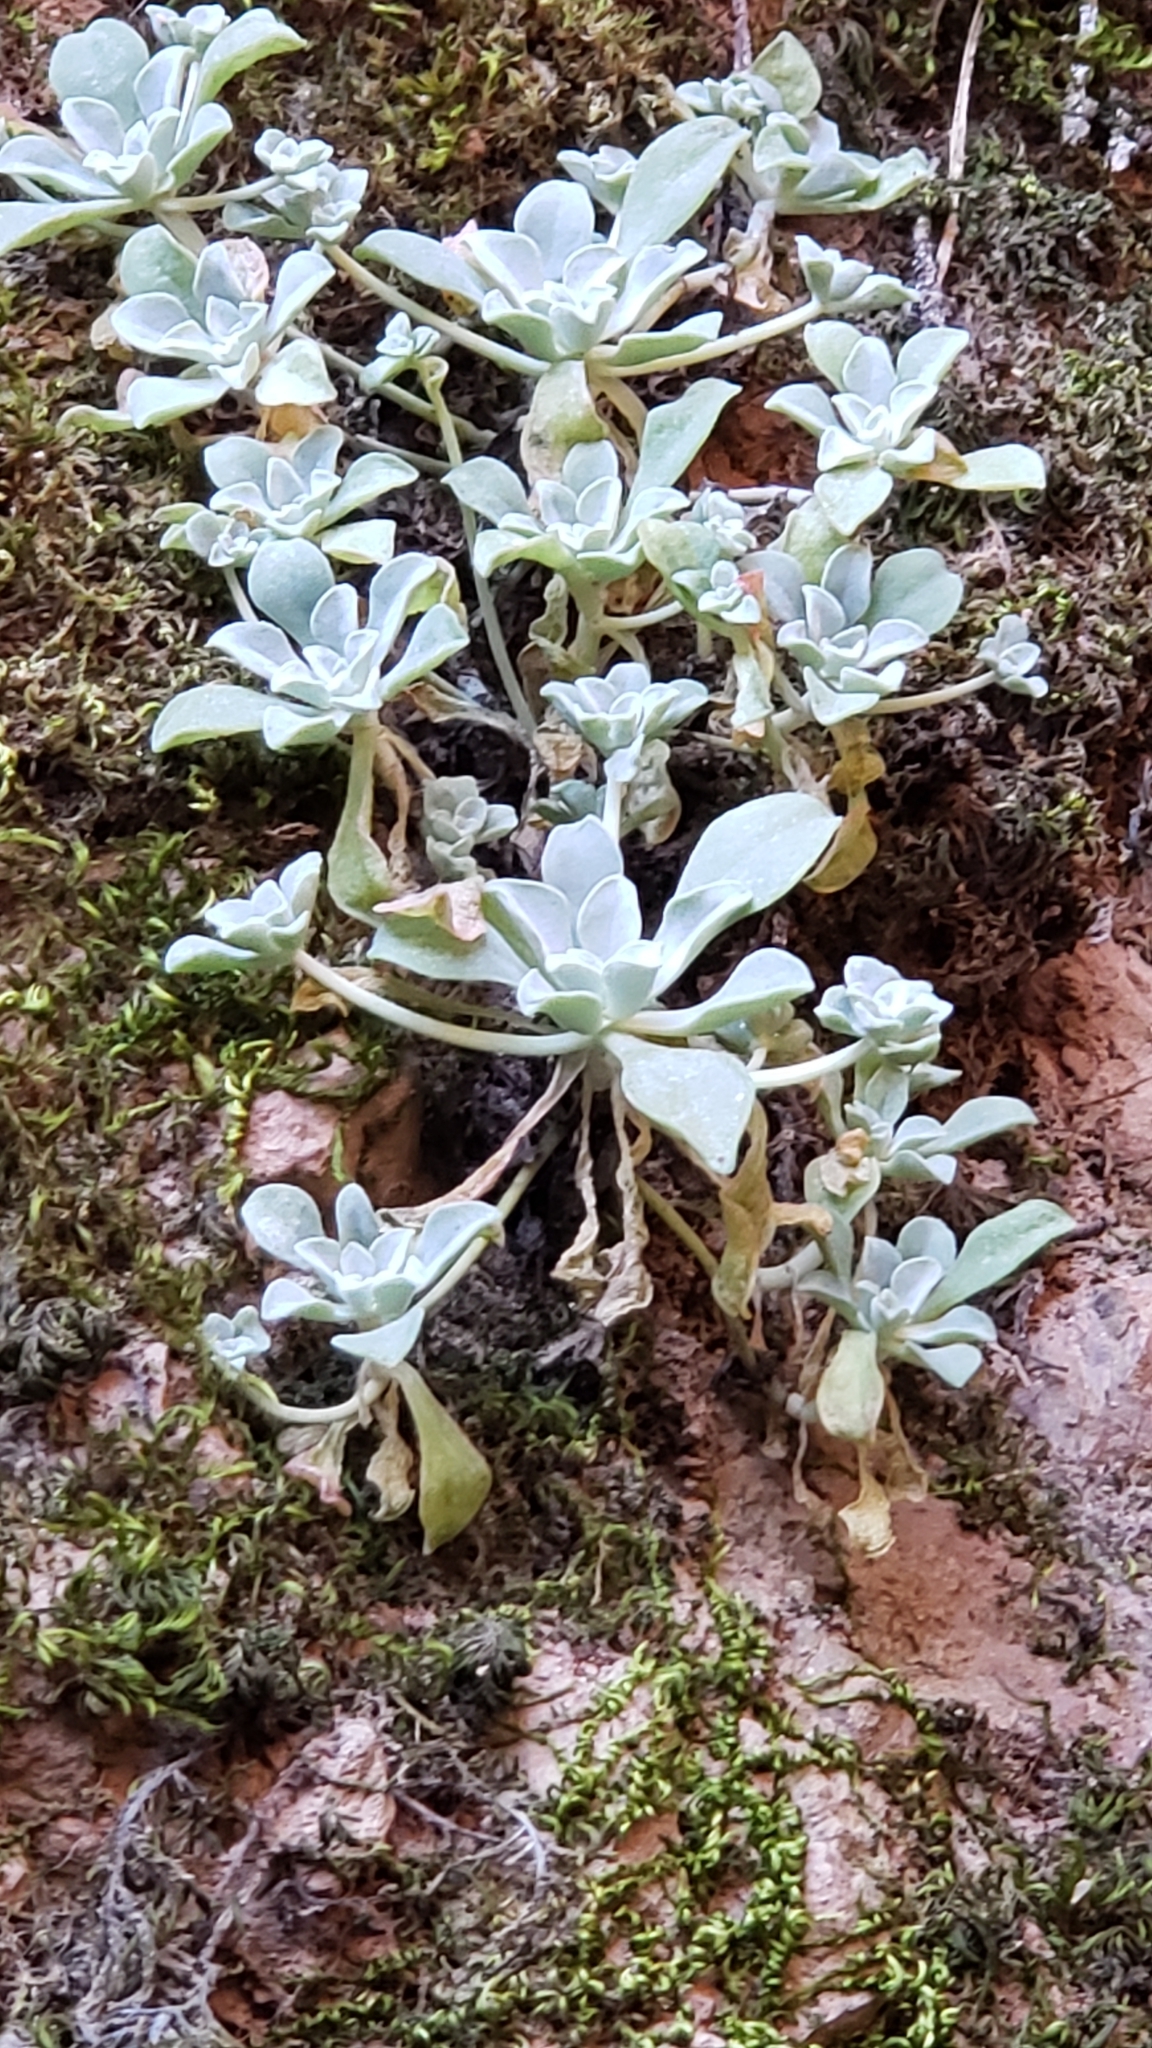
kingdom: Plantae
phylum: Tracheophyta
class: Magnoliopsida
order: Saxifragales
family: Crassulaceae
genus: Sedum
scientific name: Sedum spathulifolium
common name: Colorado stonecrop
